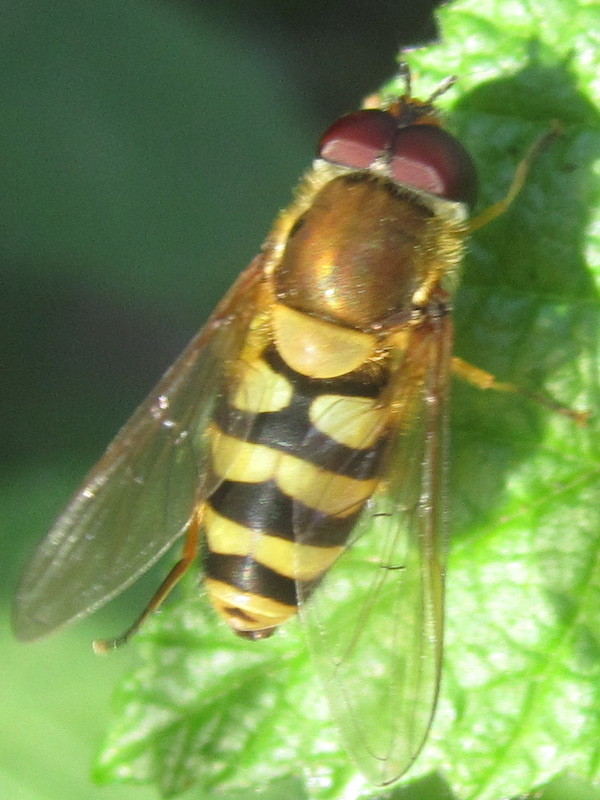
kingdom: Animalia
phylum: Arthropoda
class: Insecta
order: Diptera
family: Syrphidae
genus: Syrphus
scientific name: Syrphus
